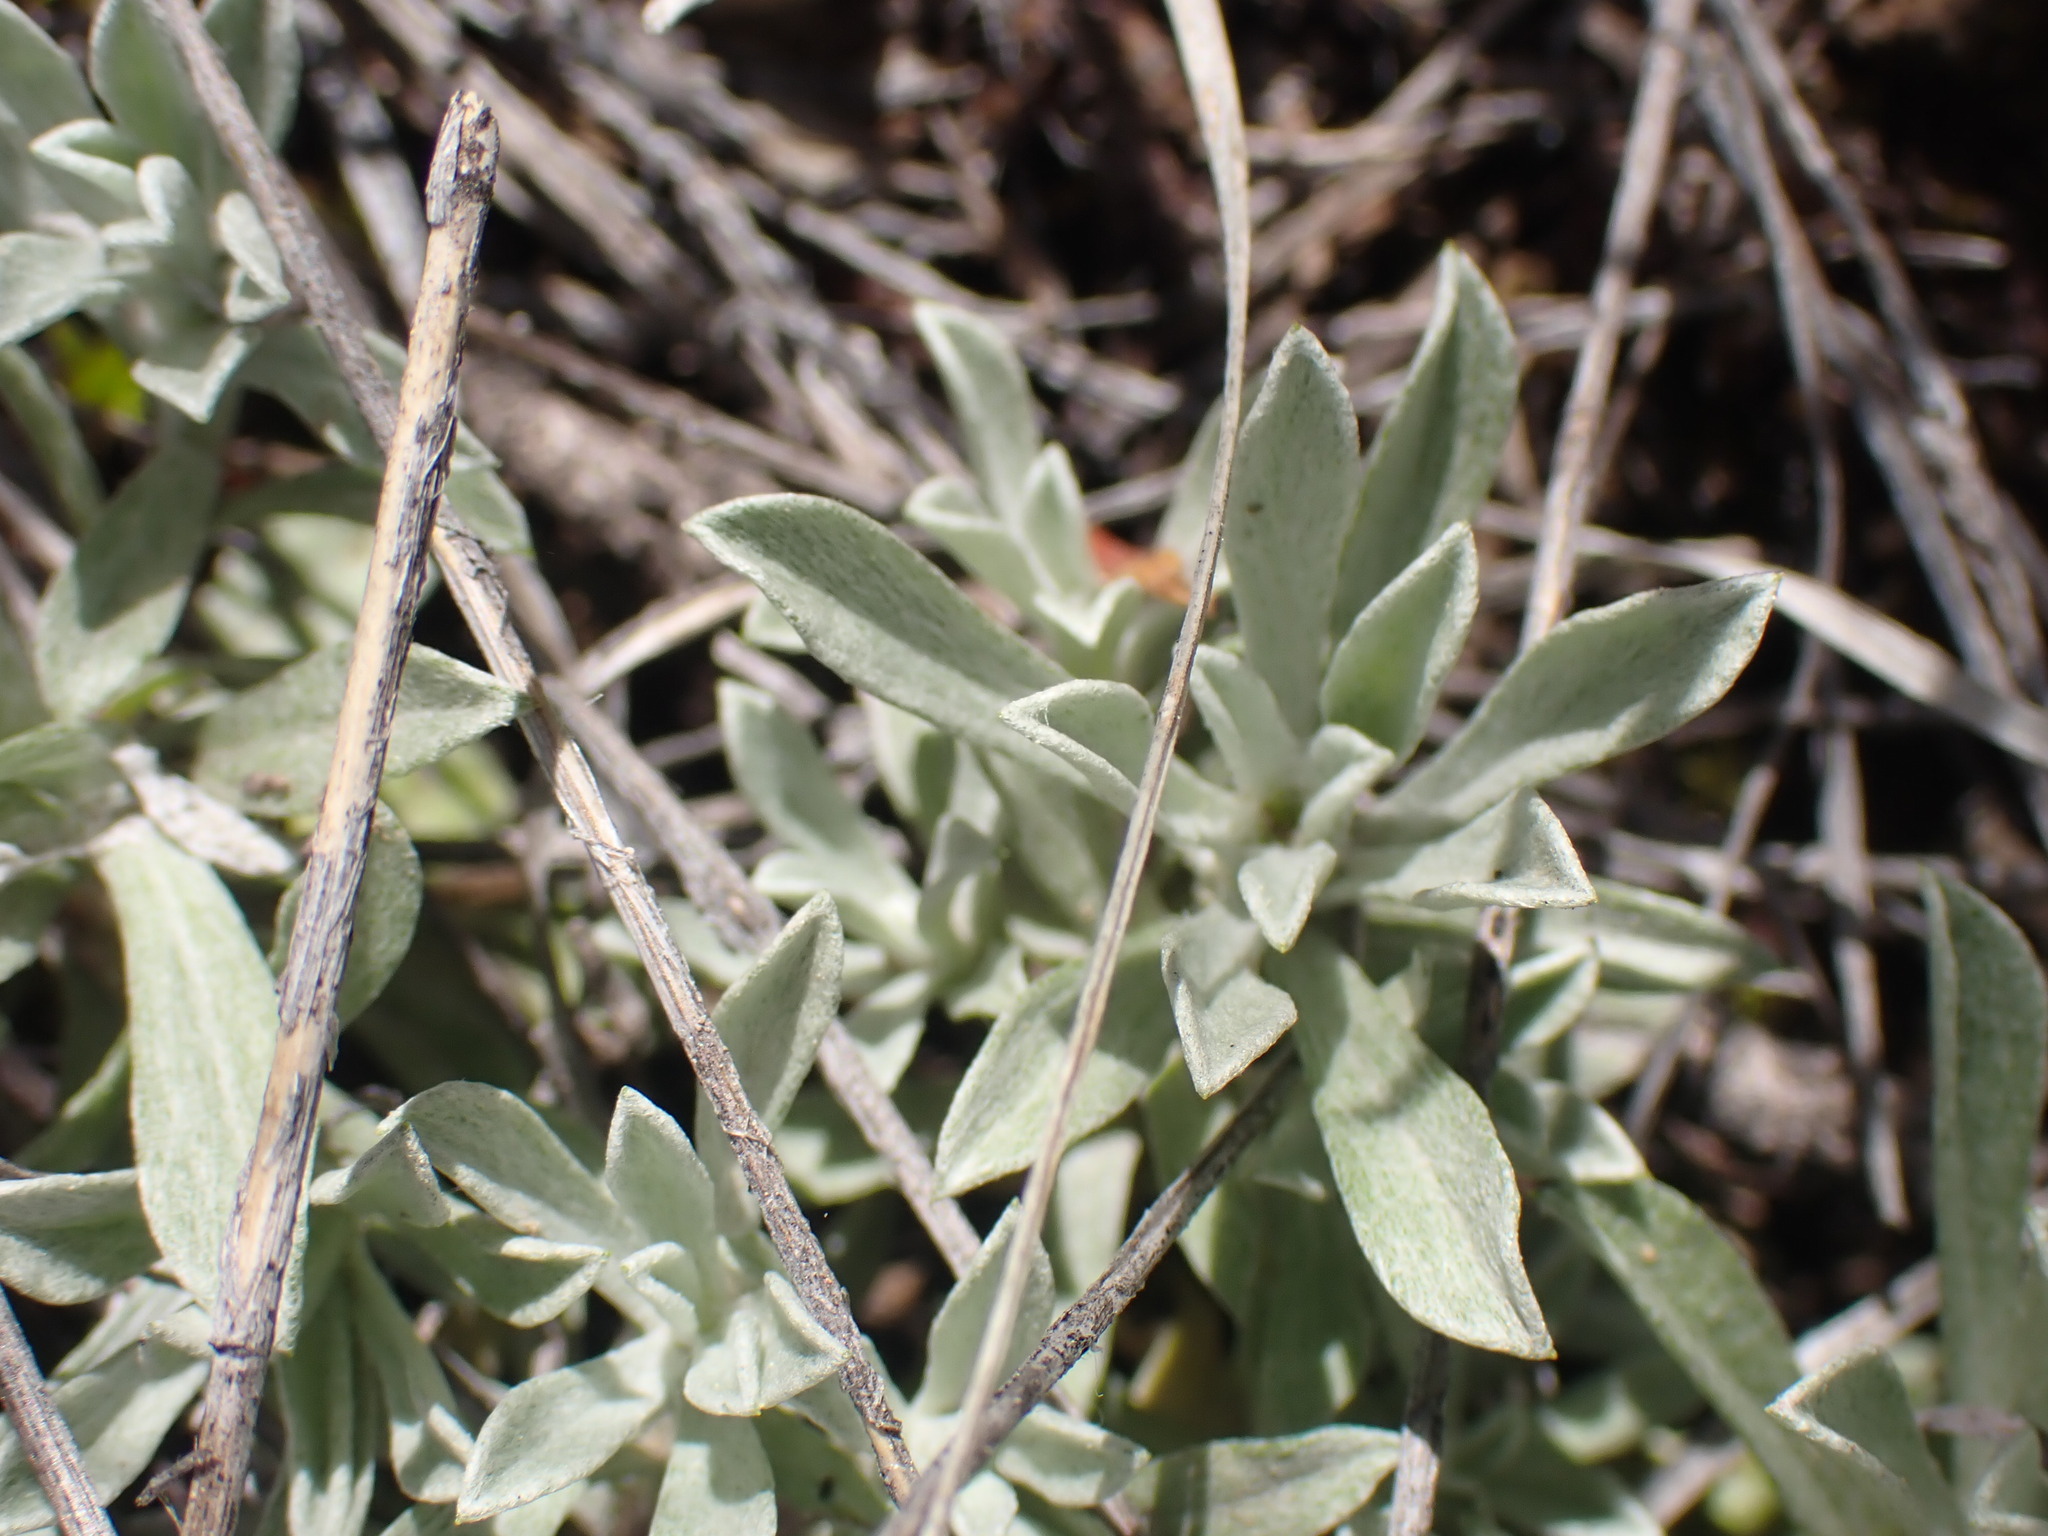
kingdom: Plantae
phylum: Tracheophyta
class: Magnoliopsida
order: Asterales
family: Asteraceae
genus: Antennaria
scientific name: Antennaria rosea
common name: Rosy pussytoes
